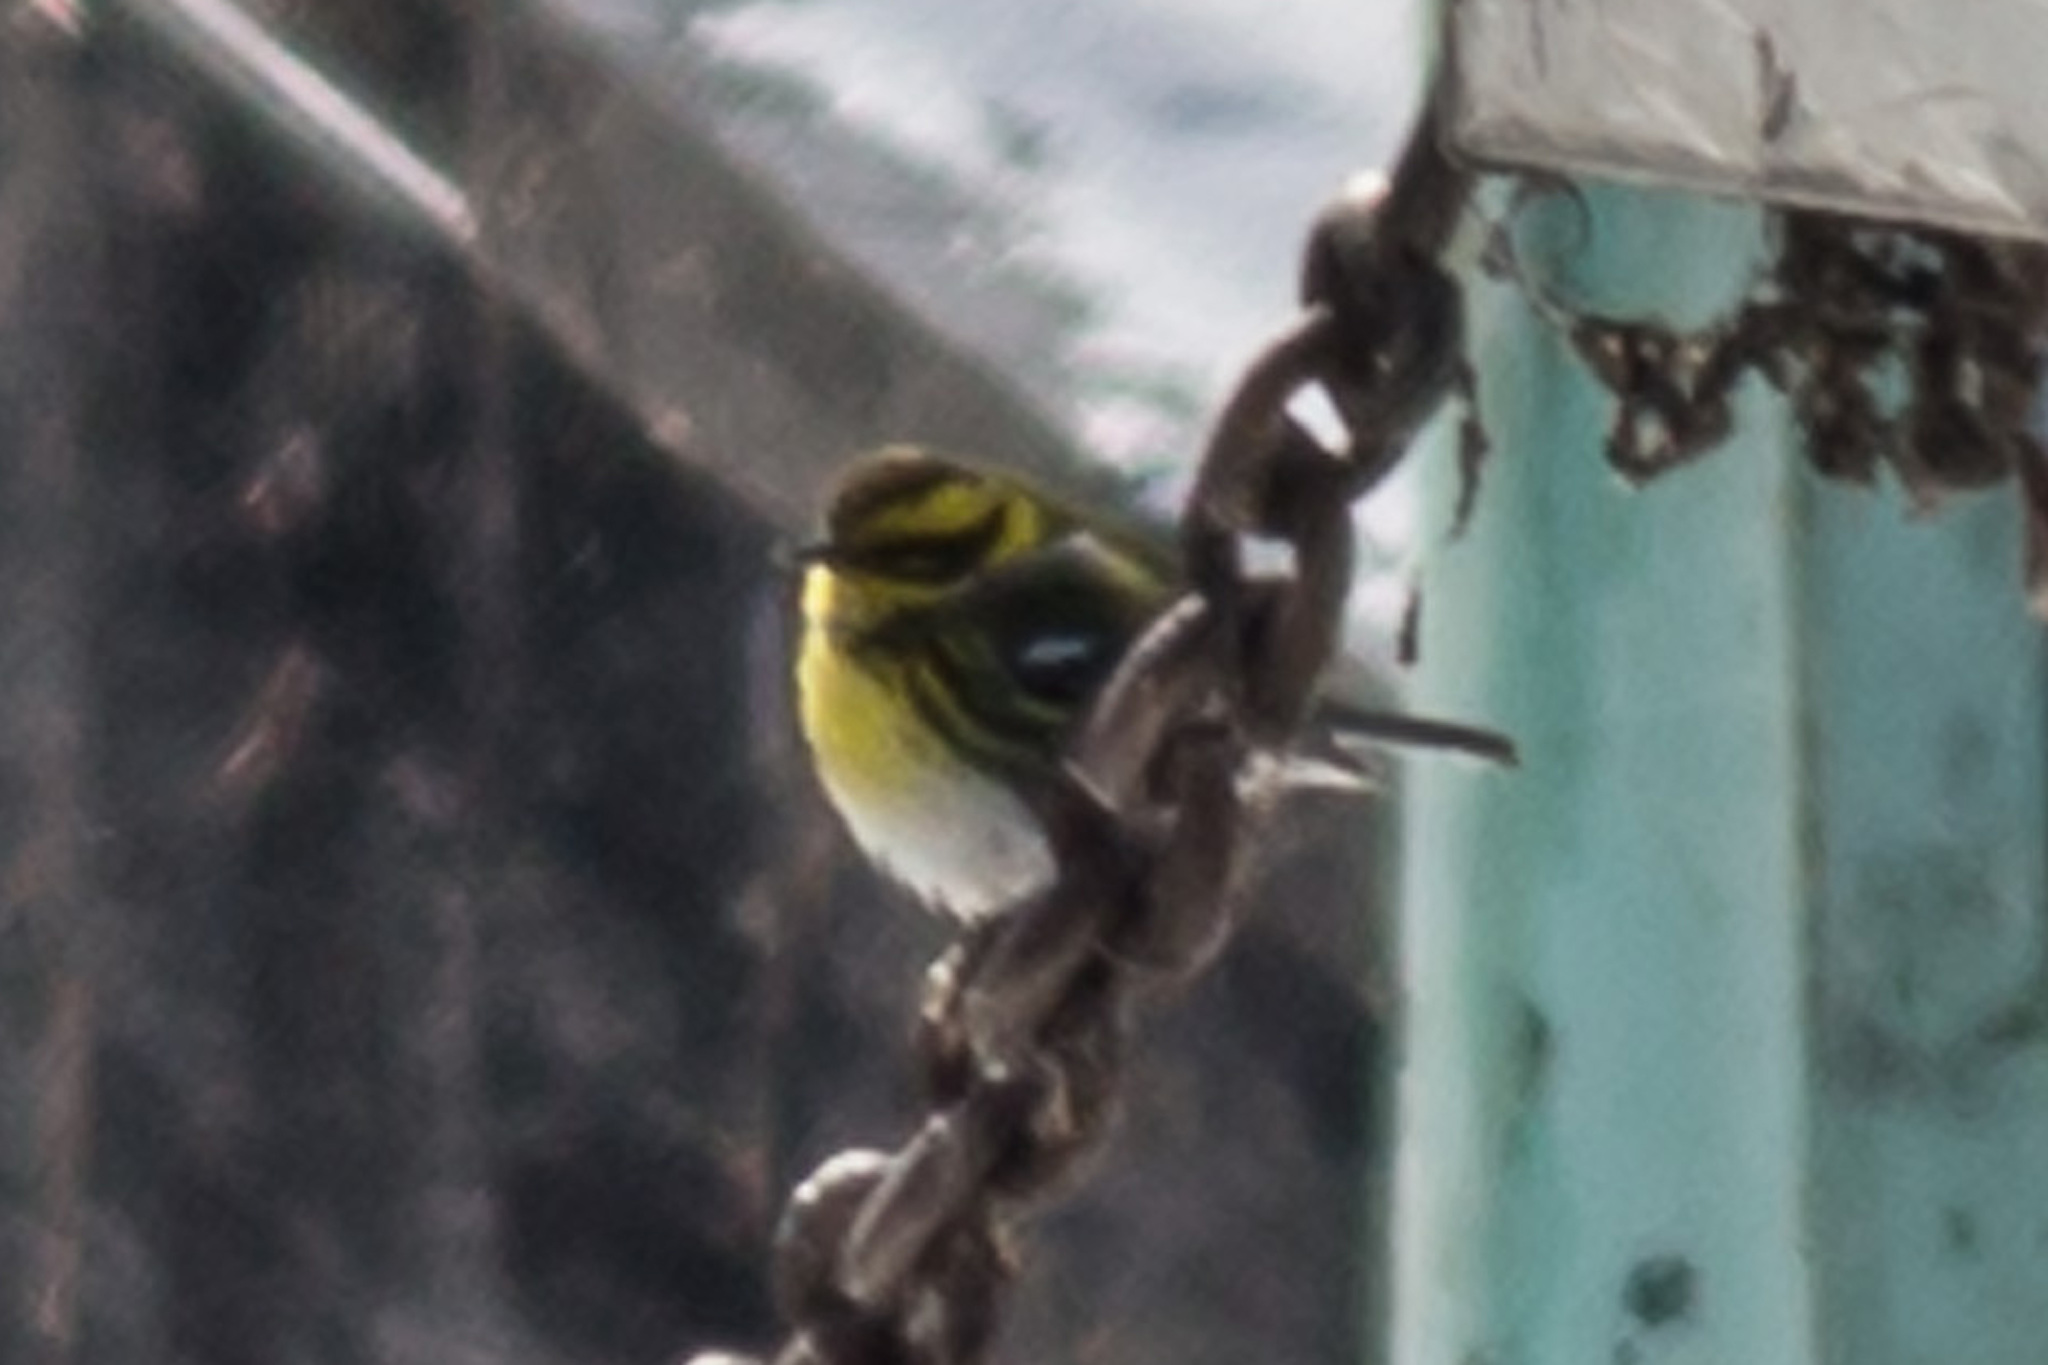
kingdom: Animalia
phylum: Chordata
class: Aves
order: Passeriformes
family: Parulidae
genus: Setophaga
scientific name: Setophaga townsendi
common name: Townsend's warbler
